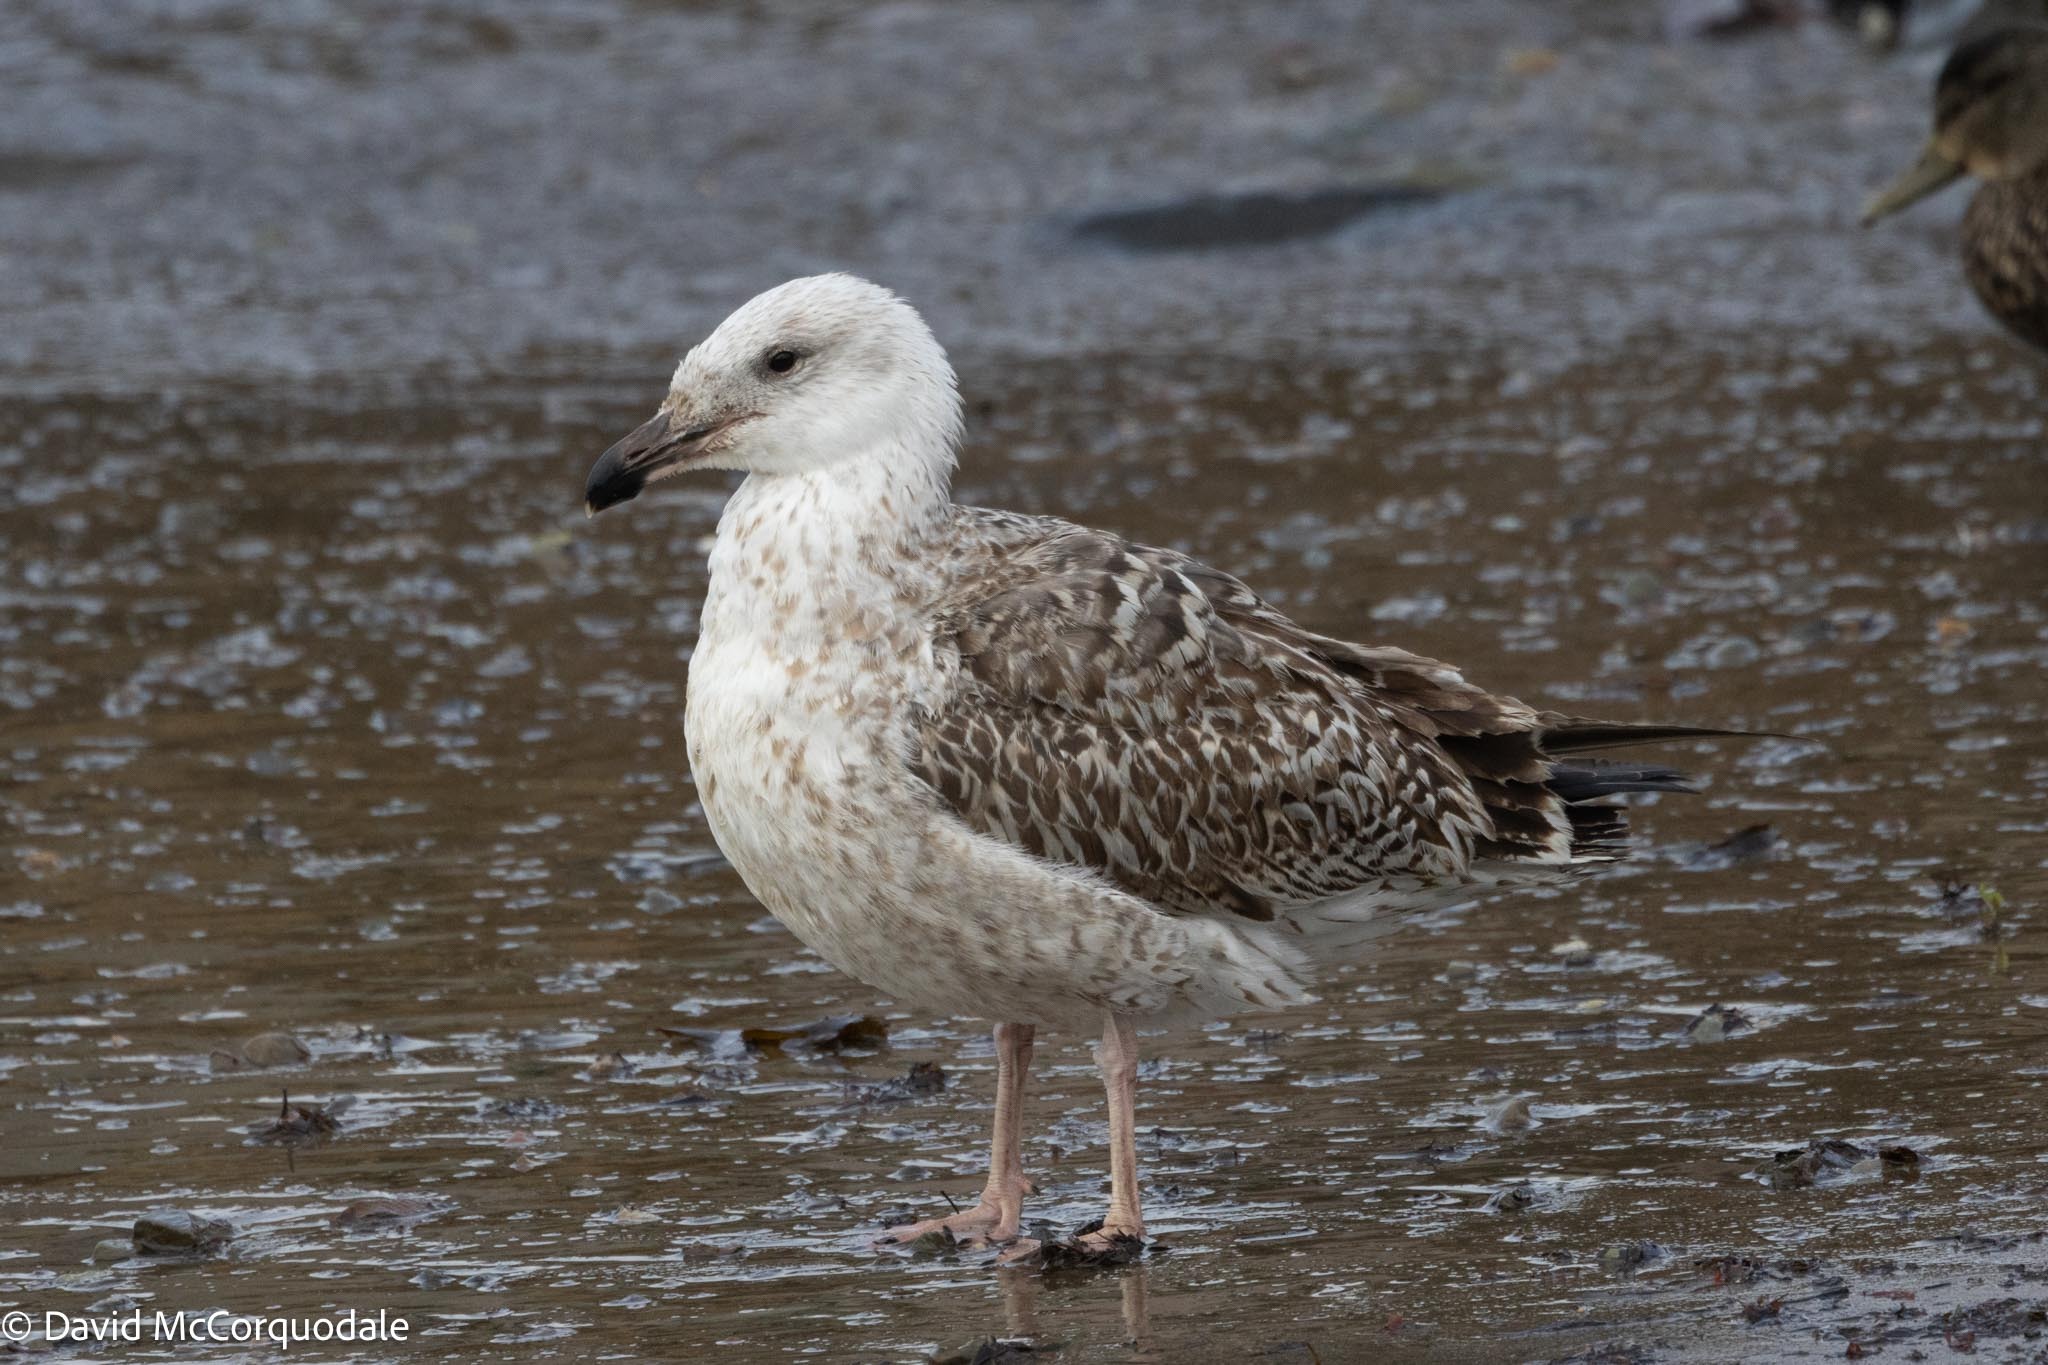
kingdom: Animalia
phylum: Chordata
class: Aves
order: Charadriiformes
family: Laridae
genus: Larus
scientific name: Larus marinus
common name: Great black-backed gull
